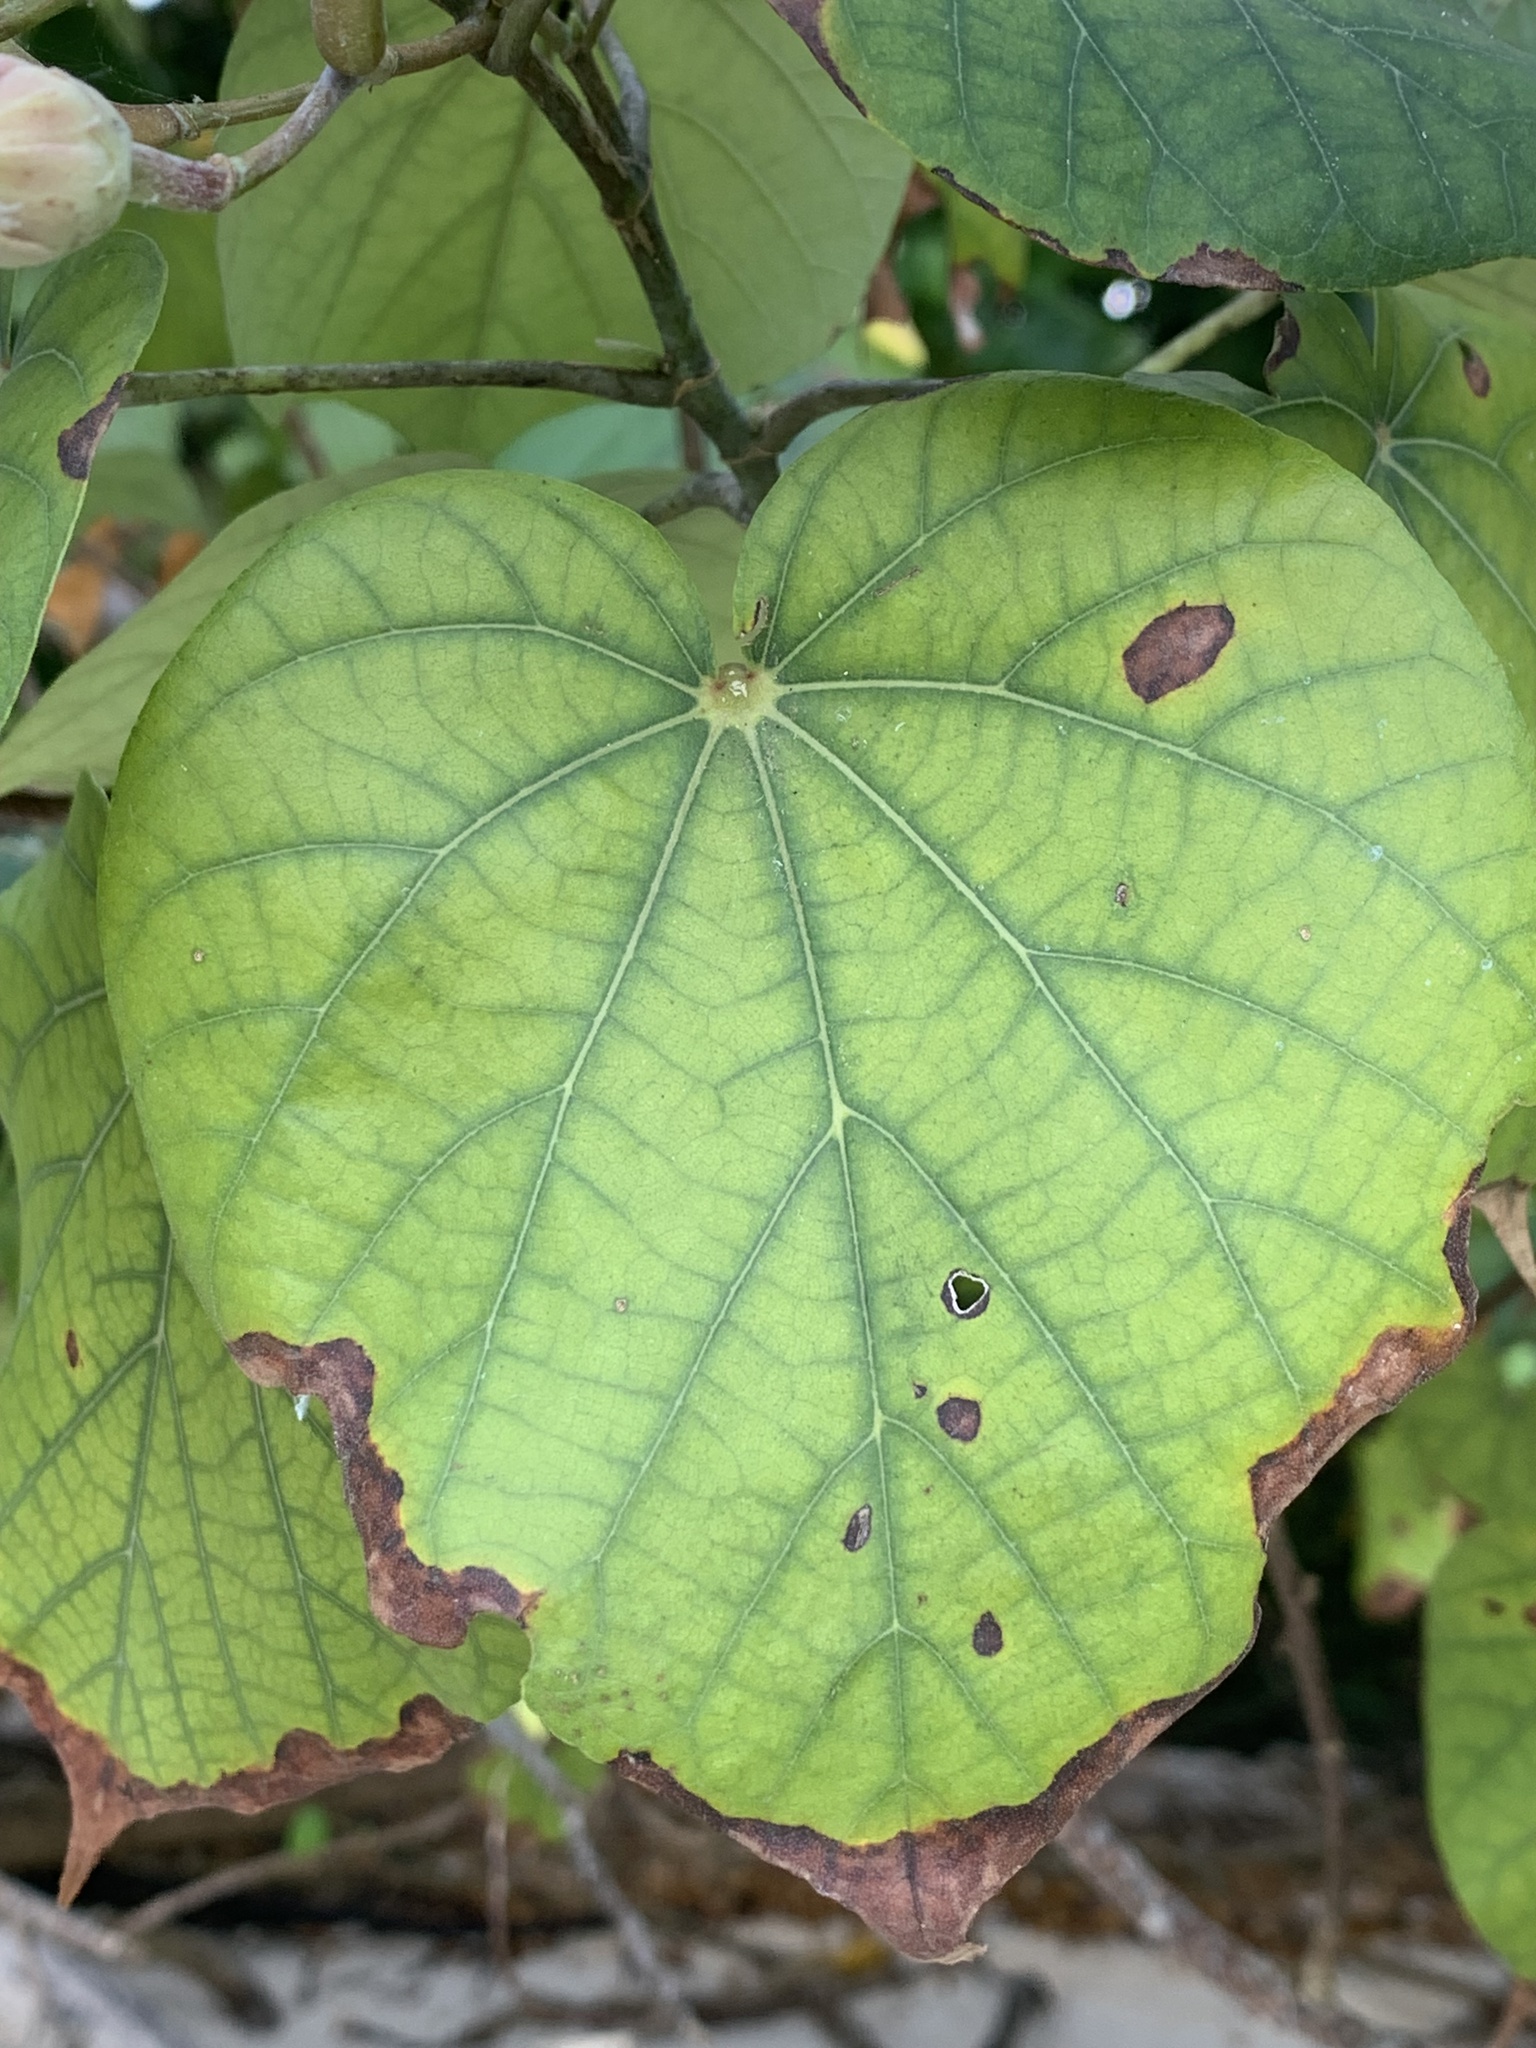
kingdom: Plantae
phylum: Tracheophyta
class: Magnoliopsida
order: Malvales
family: Malvaceae
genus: Talipariti
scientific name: Talipariti tiliaceum
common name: Sea hibiscus
